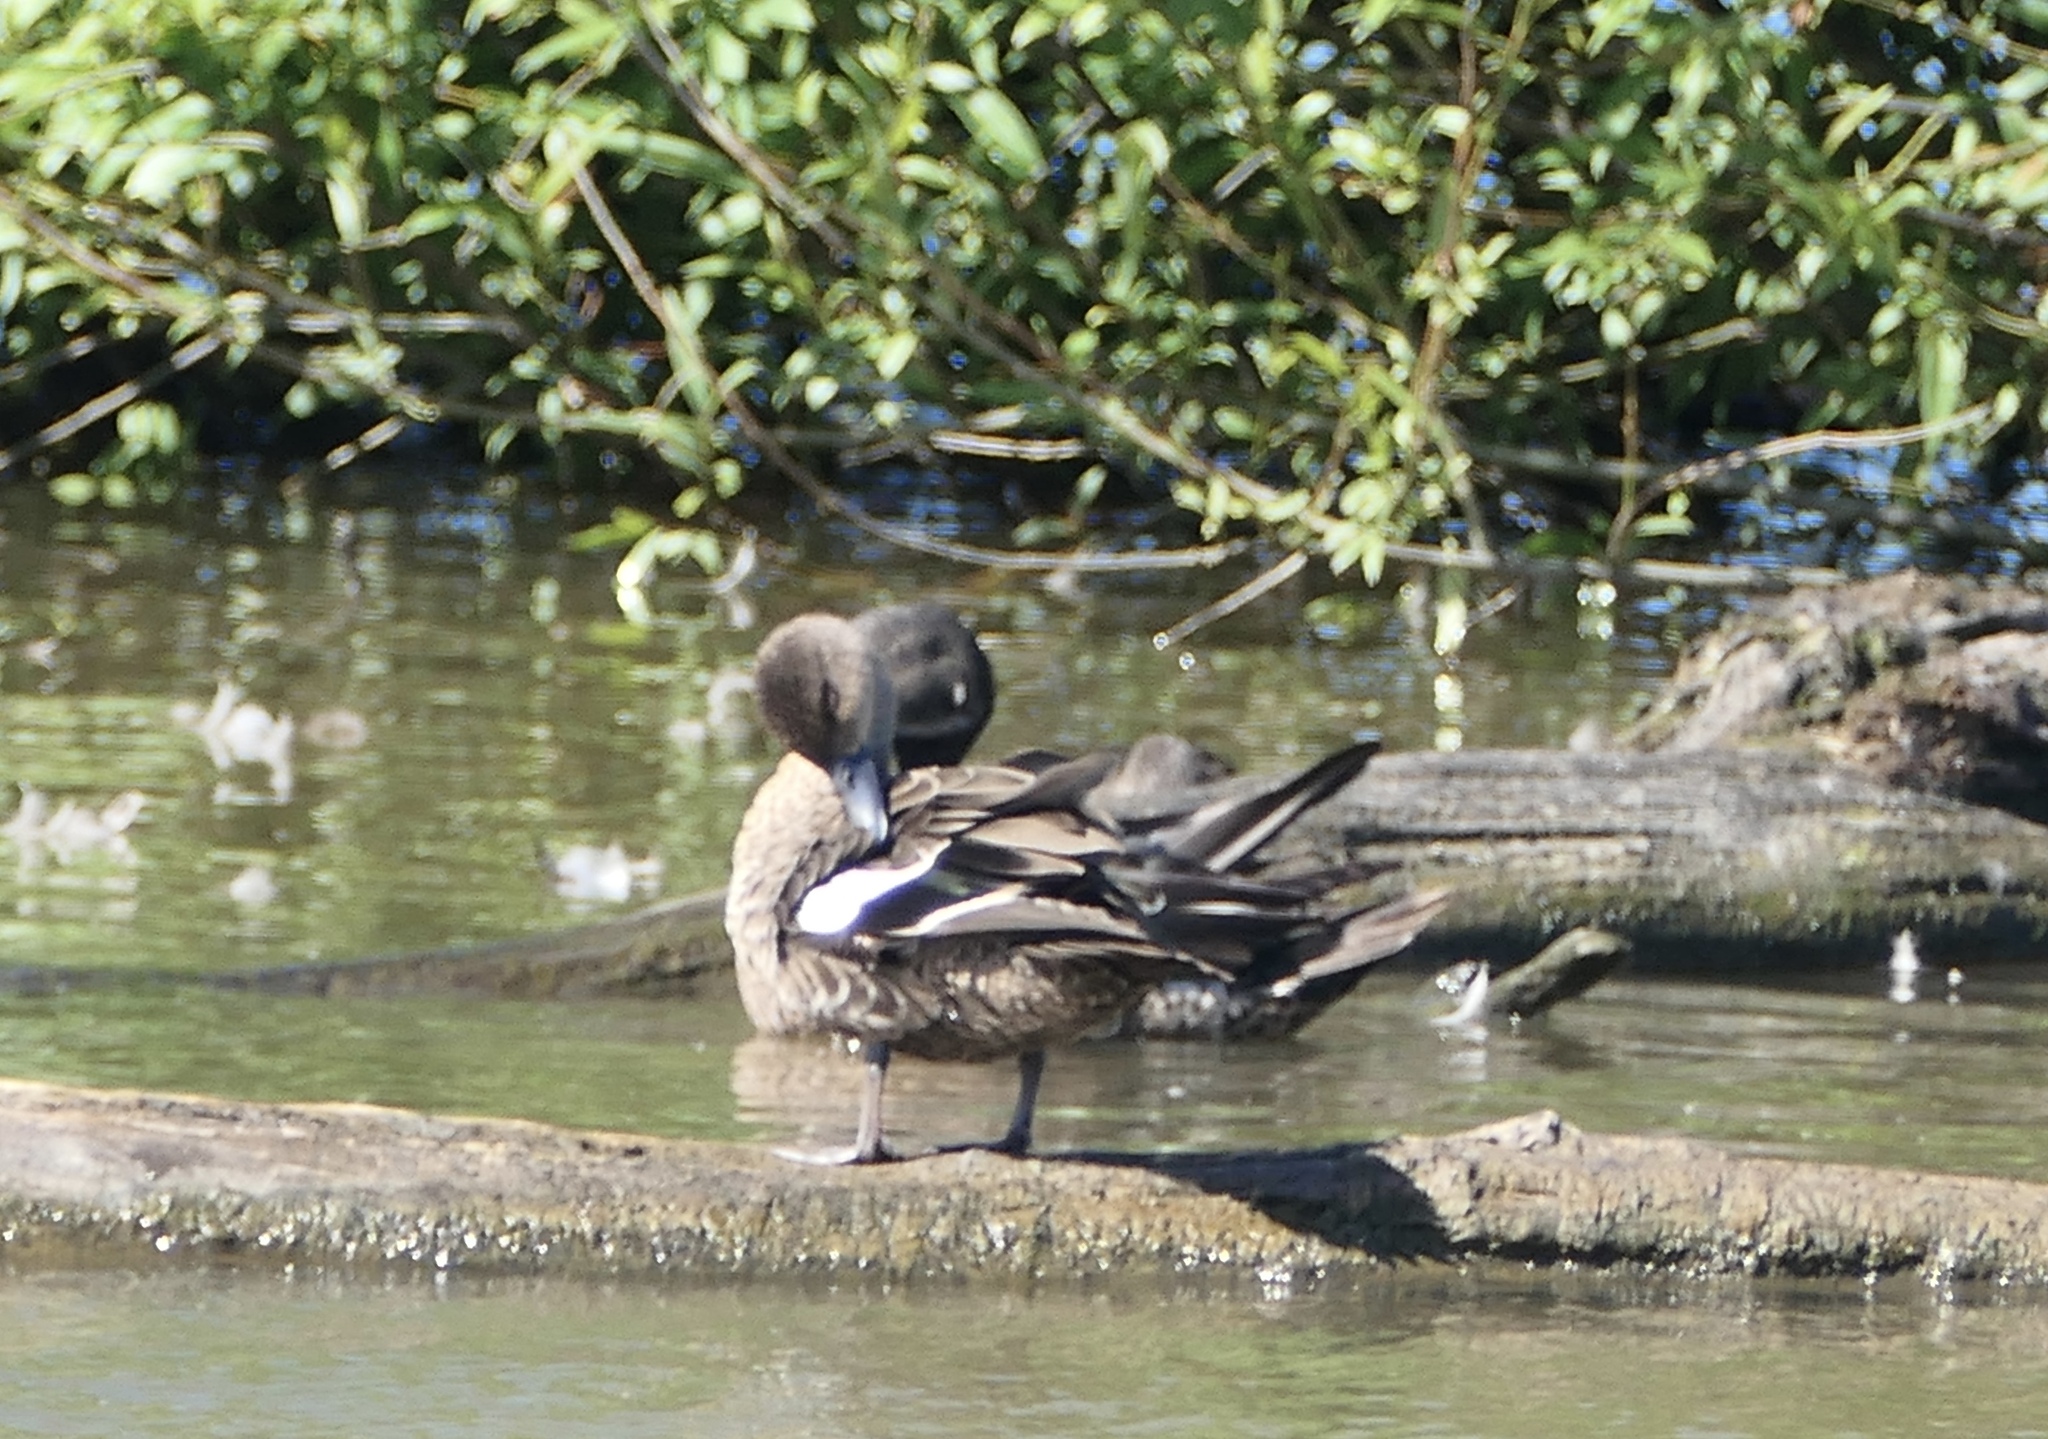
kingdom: Animalia
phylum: Chordata
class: Aves
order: Anseriformes
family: Anatidae
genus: Anas
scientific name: Anas gracilis
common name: Grey teal
